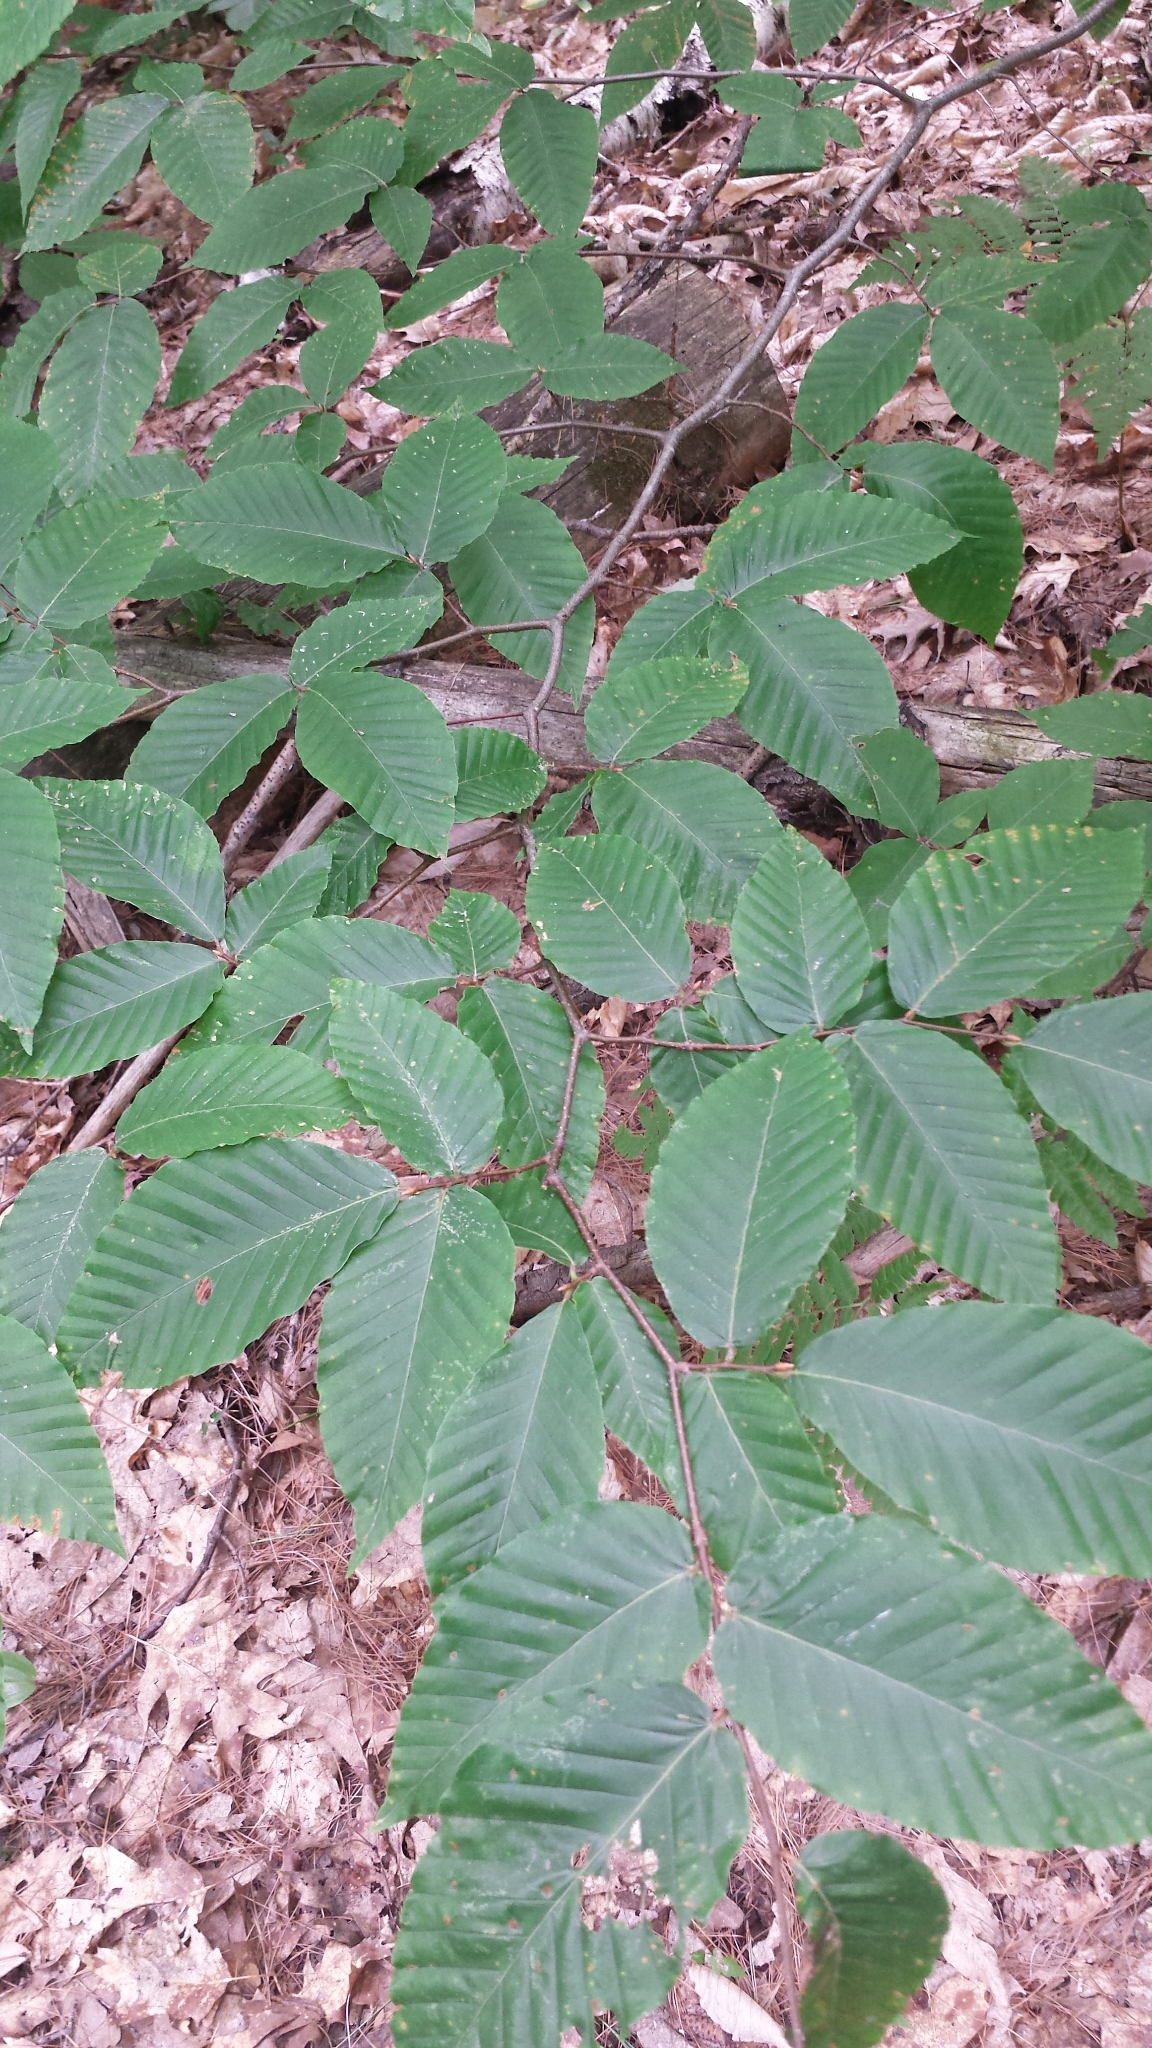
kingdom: Plantae
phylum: Tracheophyta
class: Magnoliopsida
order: Fagales
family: Fagaceae
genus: Fagus
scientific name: Fagus grandifolia
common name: American beech
